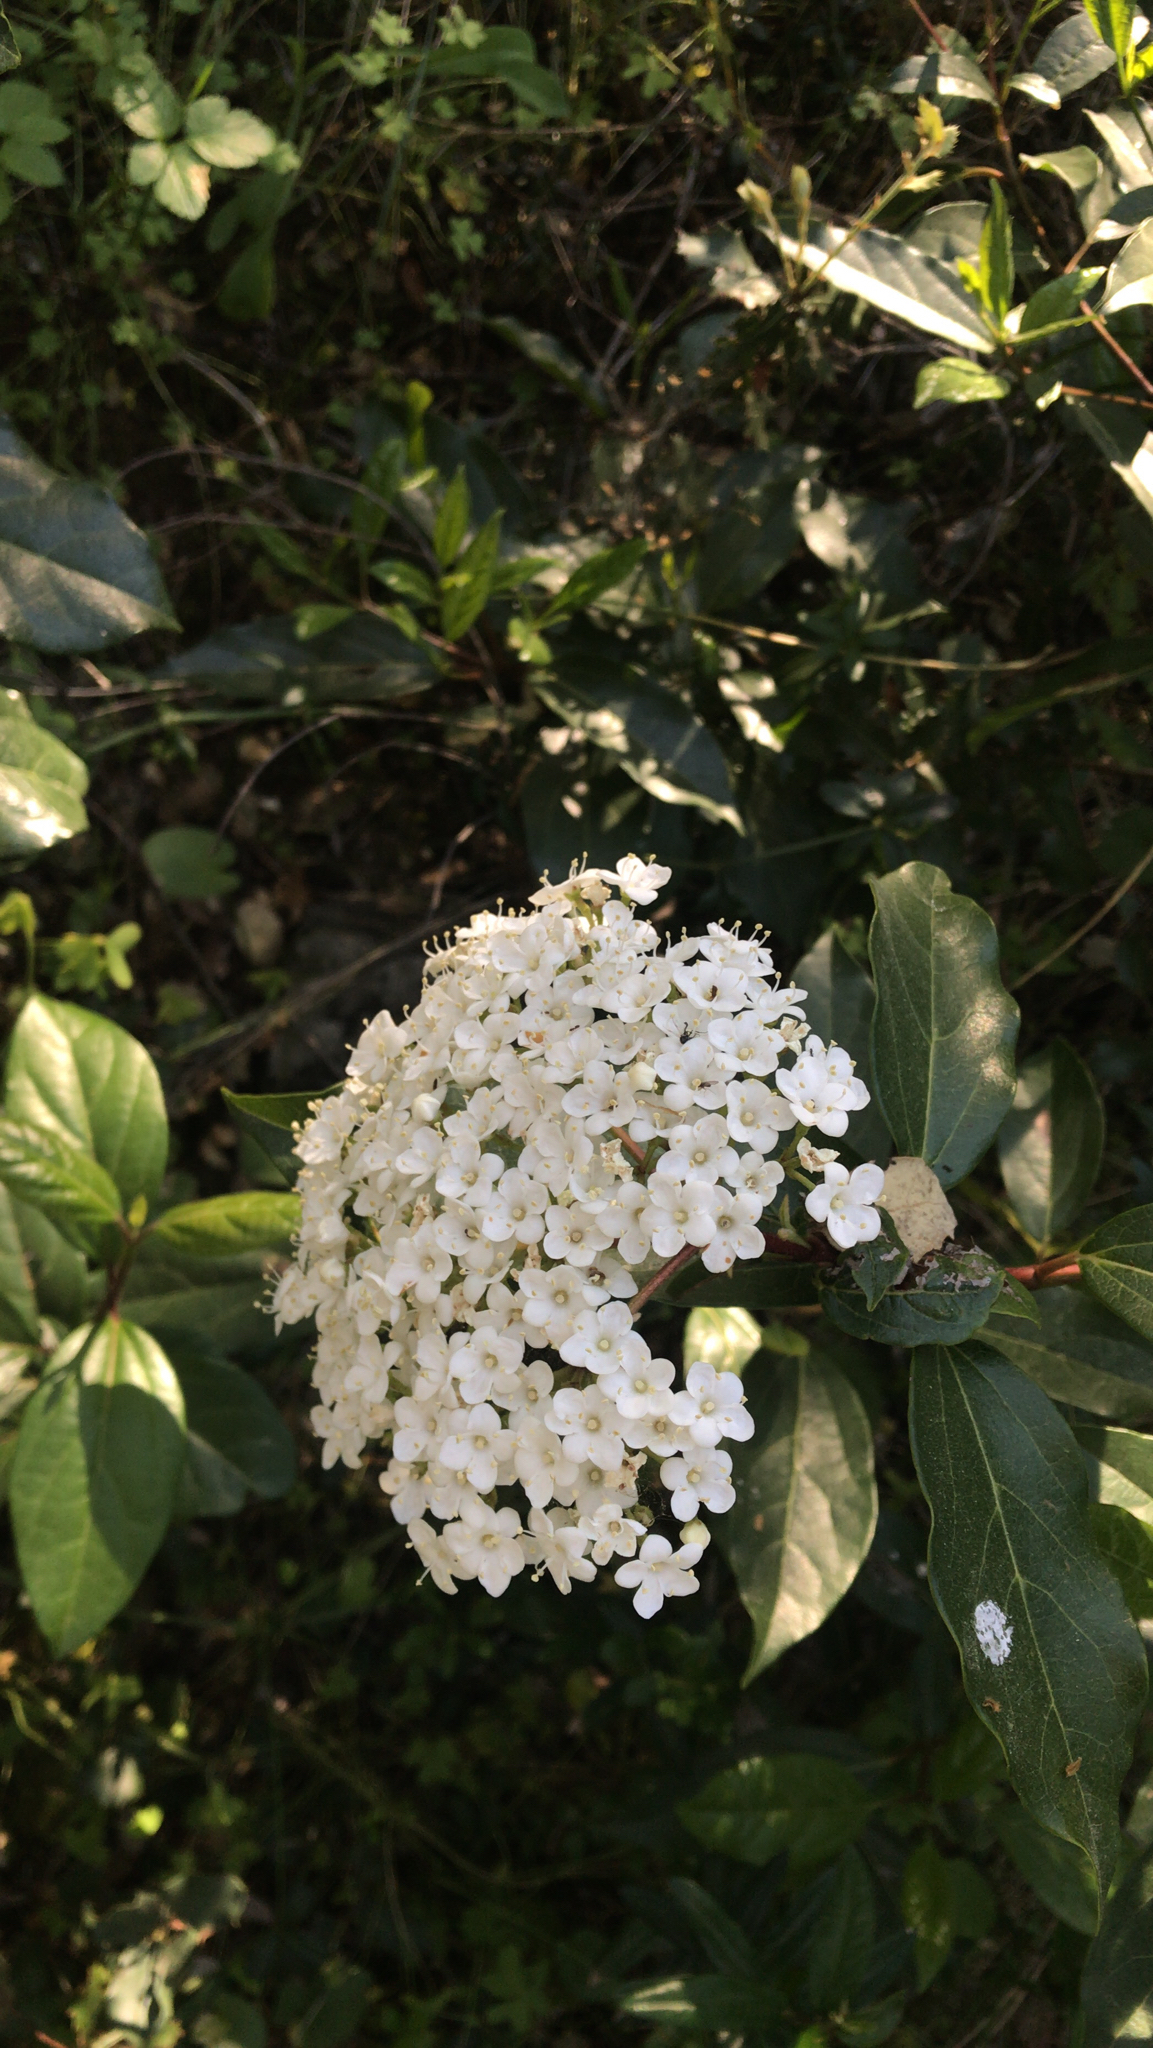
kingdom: Plantae
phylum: Tracheophyta
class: Magnoliopsida
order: Dipsacales
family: Viburnaceae
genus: Viburnum
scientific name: Viburnum tinus
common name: Laurustinus
